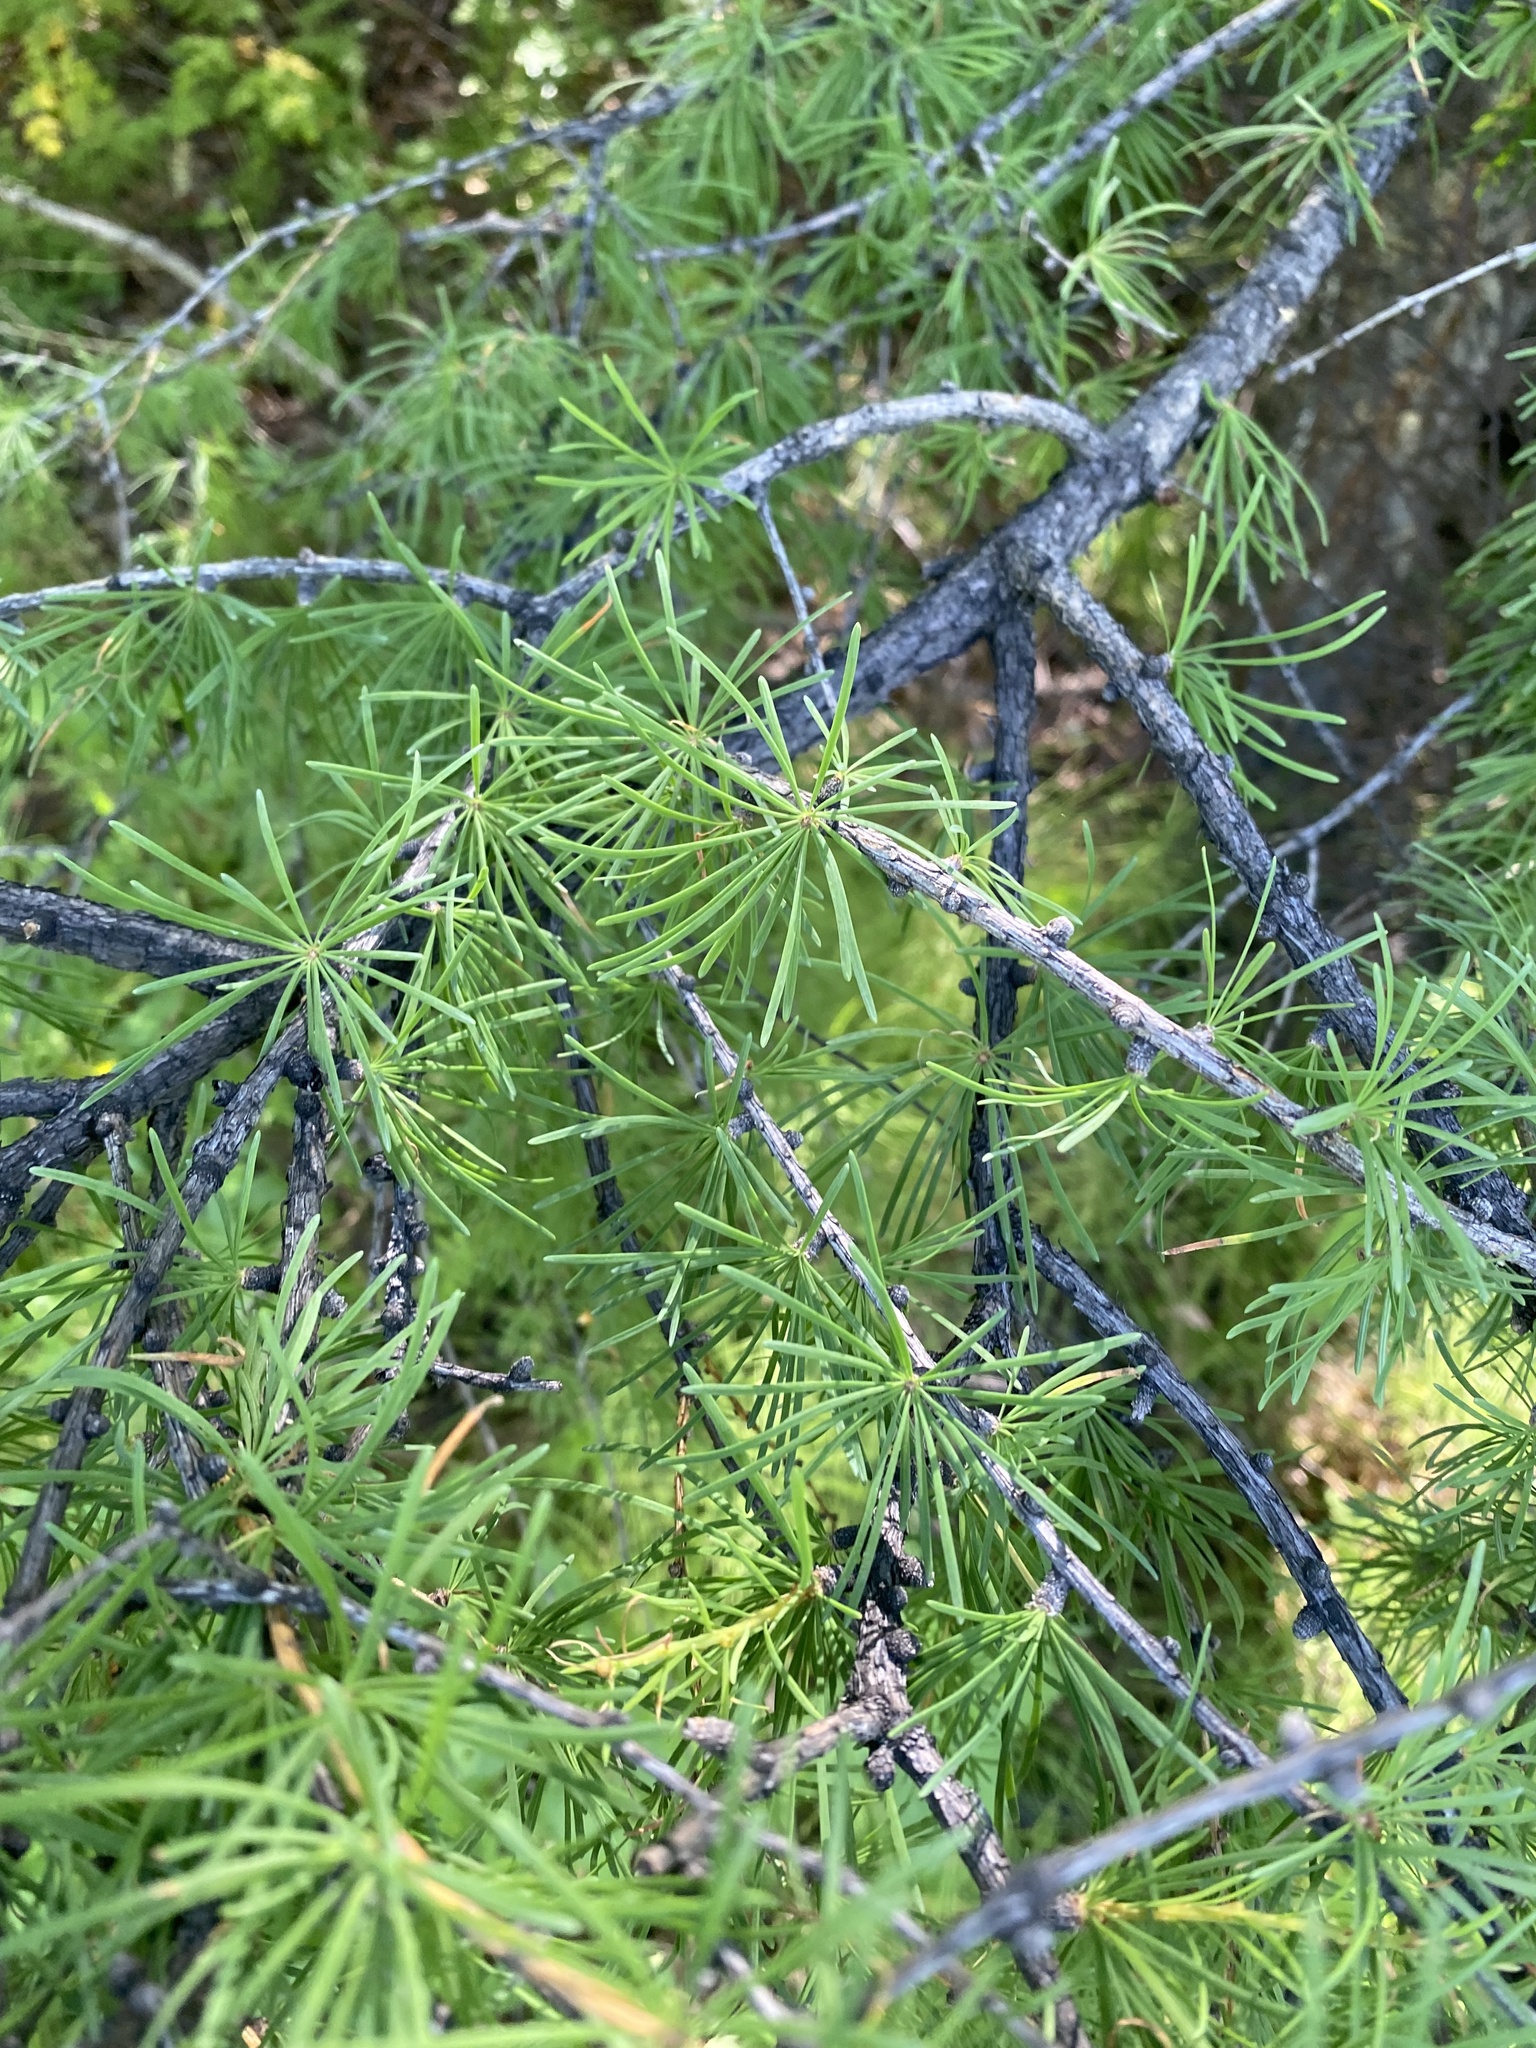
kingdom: Plantae
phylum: Tracheophyta
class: Pinopsida
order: Pinales
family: Pinaceae
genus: Larix
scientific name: Larix sibirica
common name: Siberian larch
